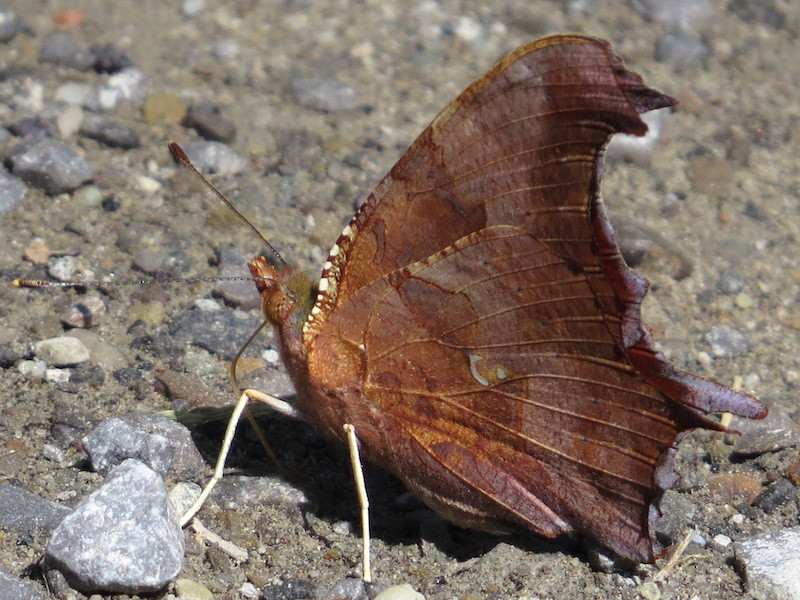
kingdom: Animalia
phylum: Arthropoda
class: Insecta
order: Lepidoptera
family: Nymphalidae
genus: Polygonia
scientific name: Polygonia interrogationis
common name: Question mark
